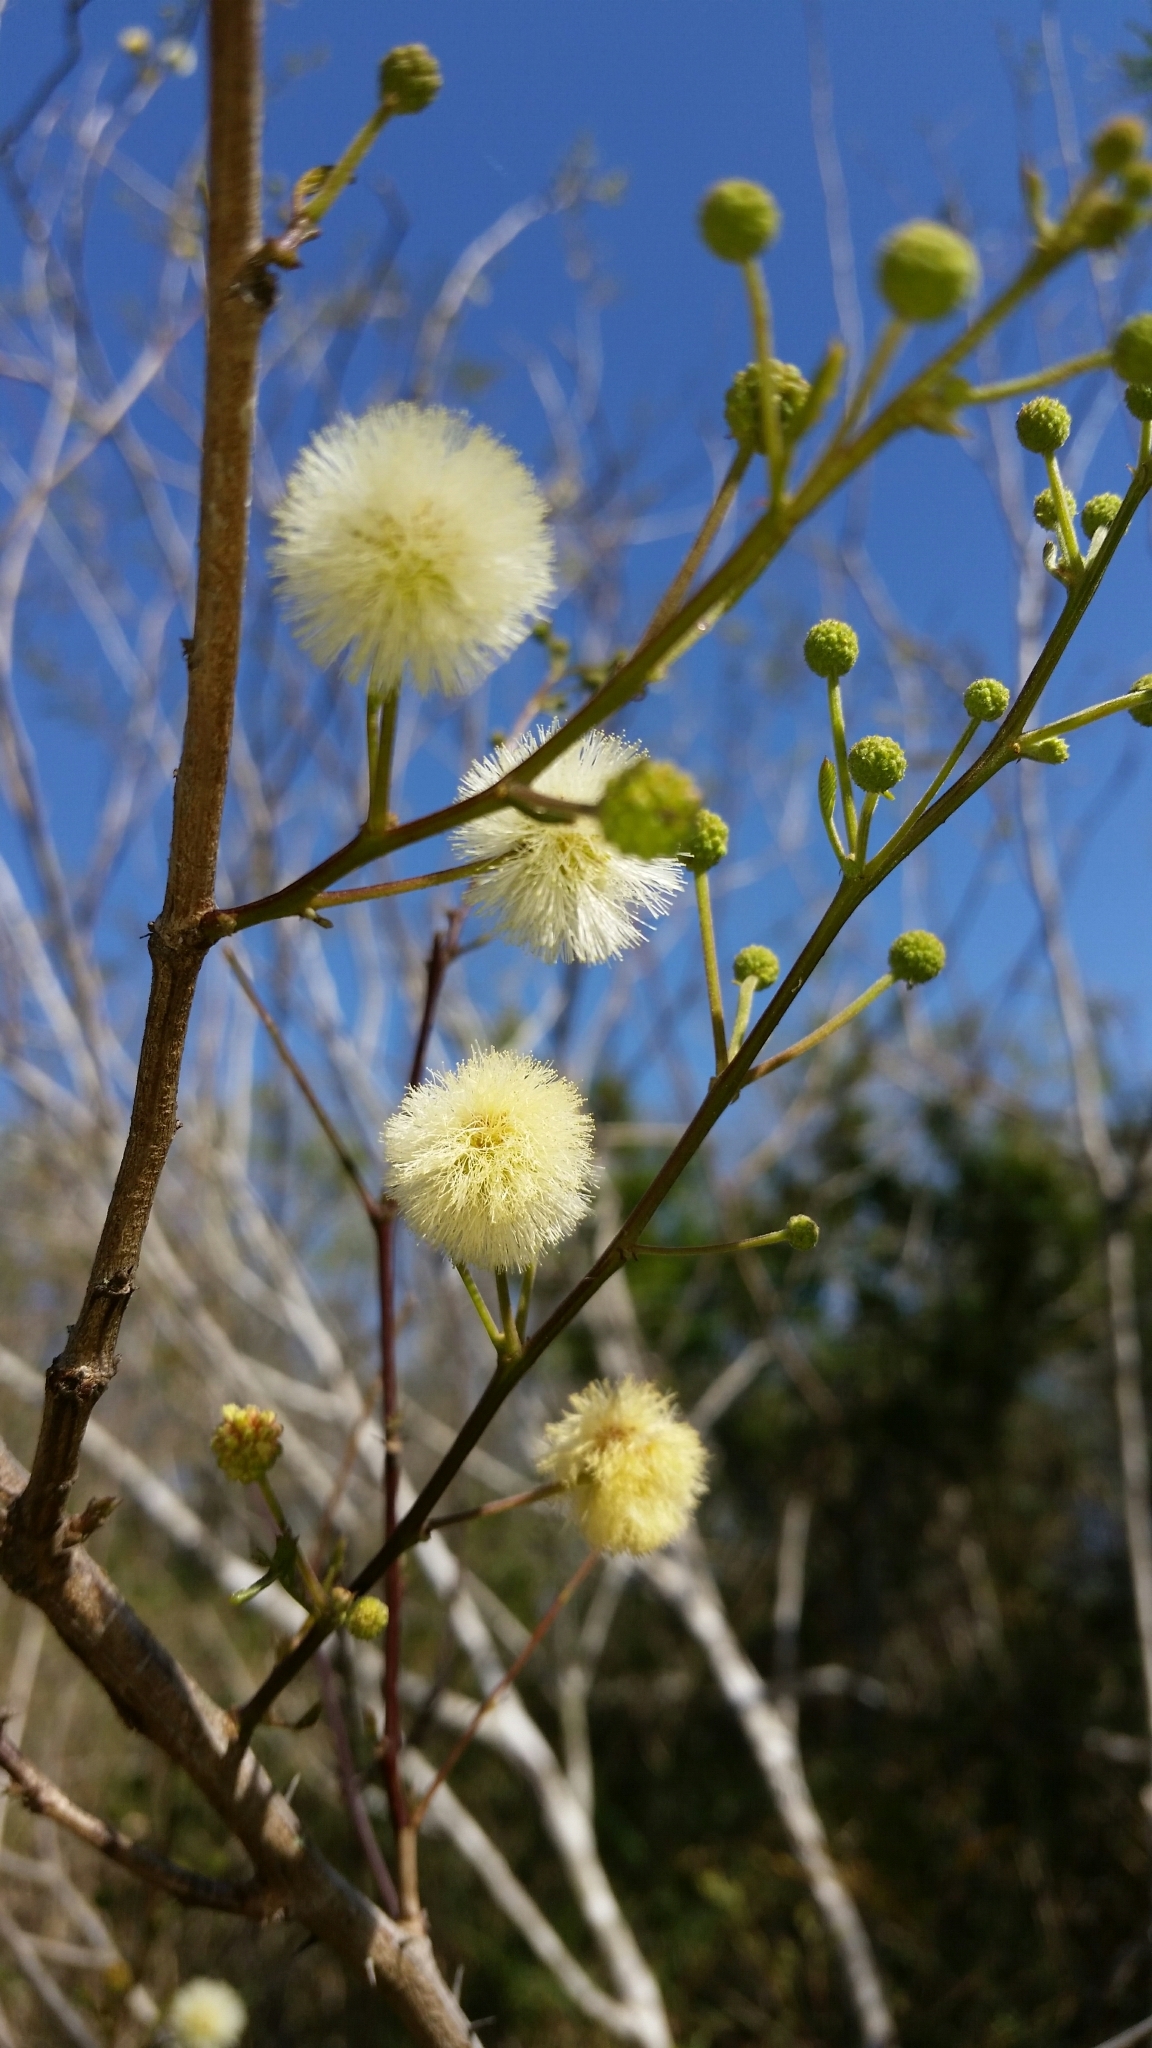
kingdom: Plantae
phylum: Tracheophyta
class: Magnoliopsida
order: Fabales
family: Fabaceae
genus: Senegalia
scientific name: Senegalia berlandieri
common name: Berlandier acacia
